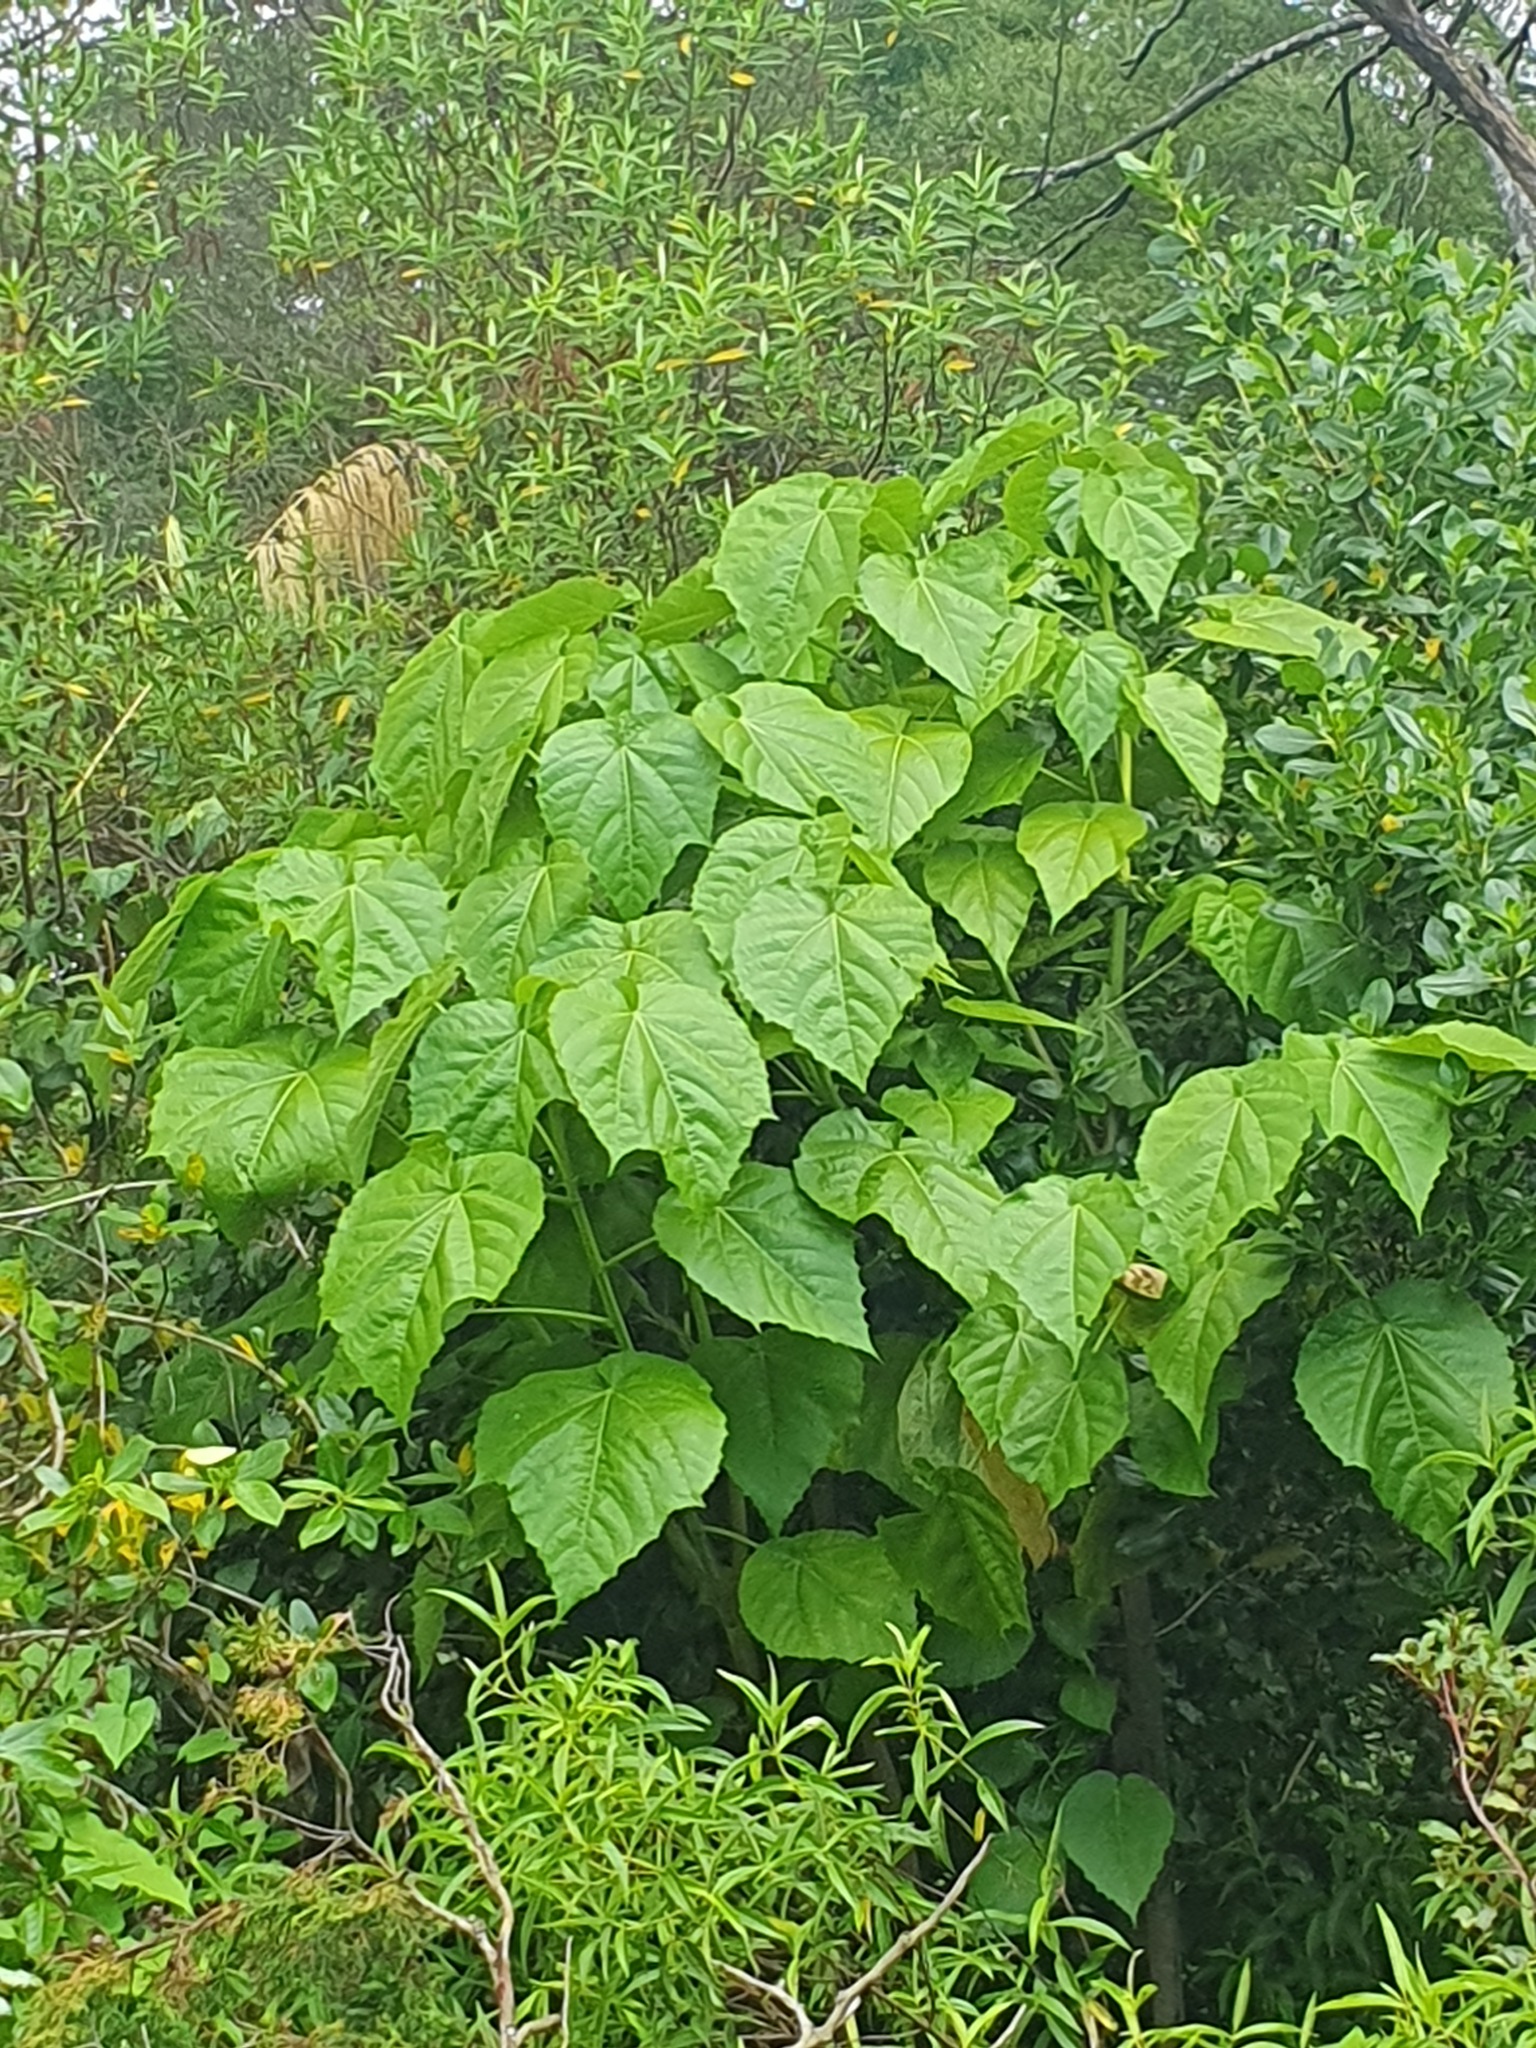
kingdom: Plantae
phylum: Tracheophyta
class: Magnoliopsida
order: Malvales
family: Malvaceae
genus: Entelea
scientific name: Entelea arborescens
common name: New zealand-mulberry
